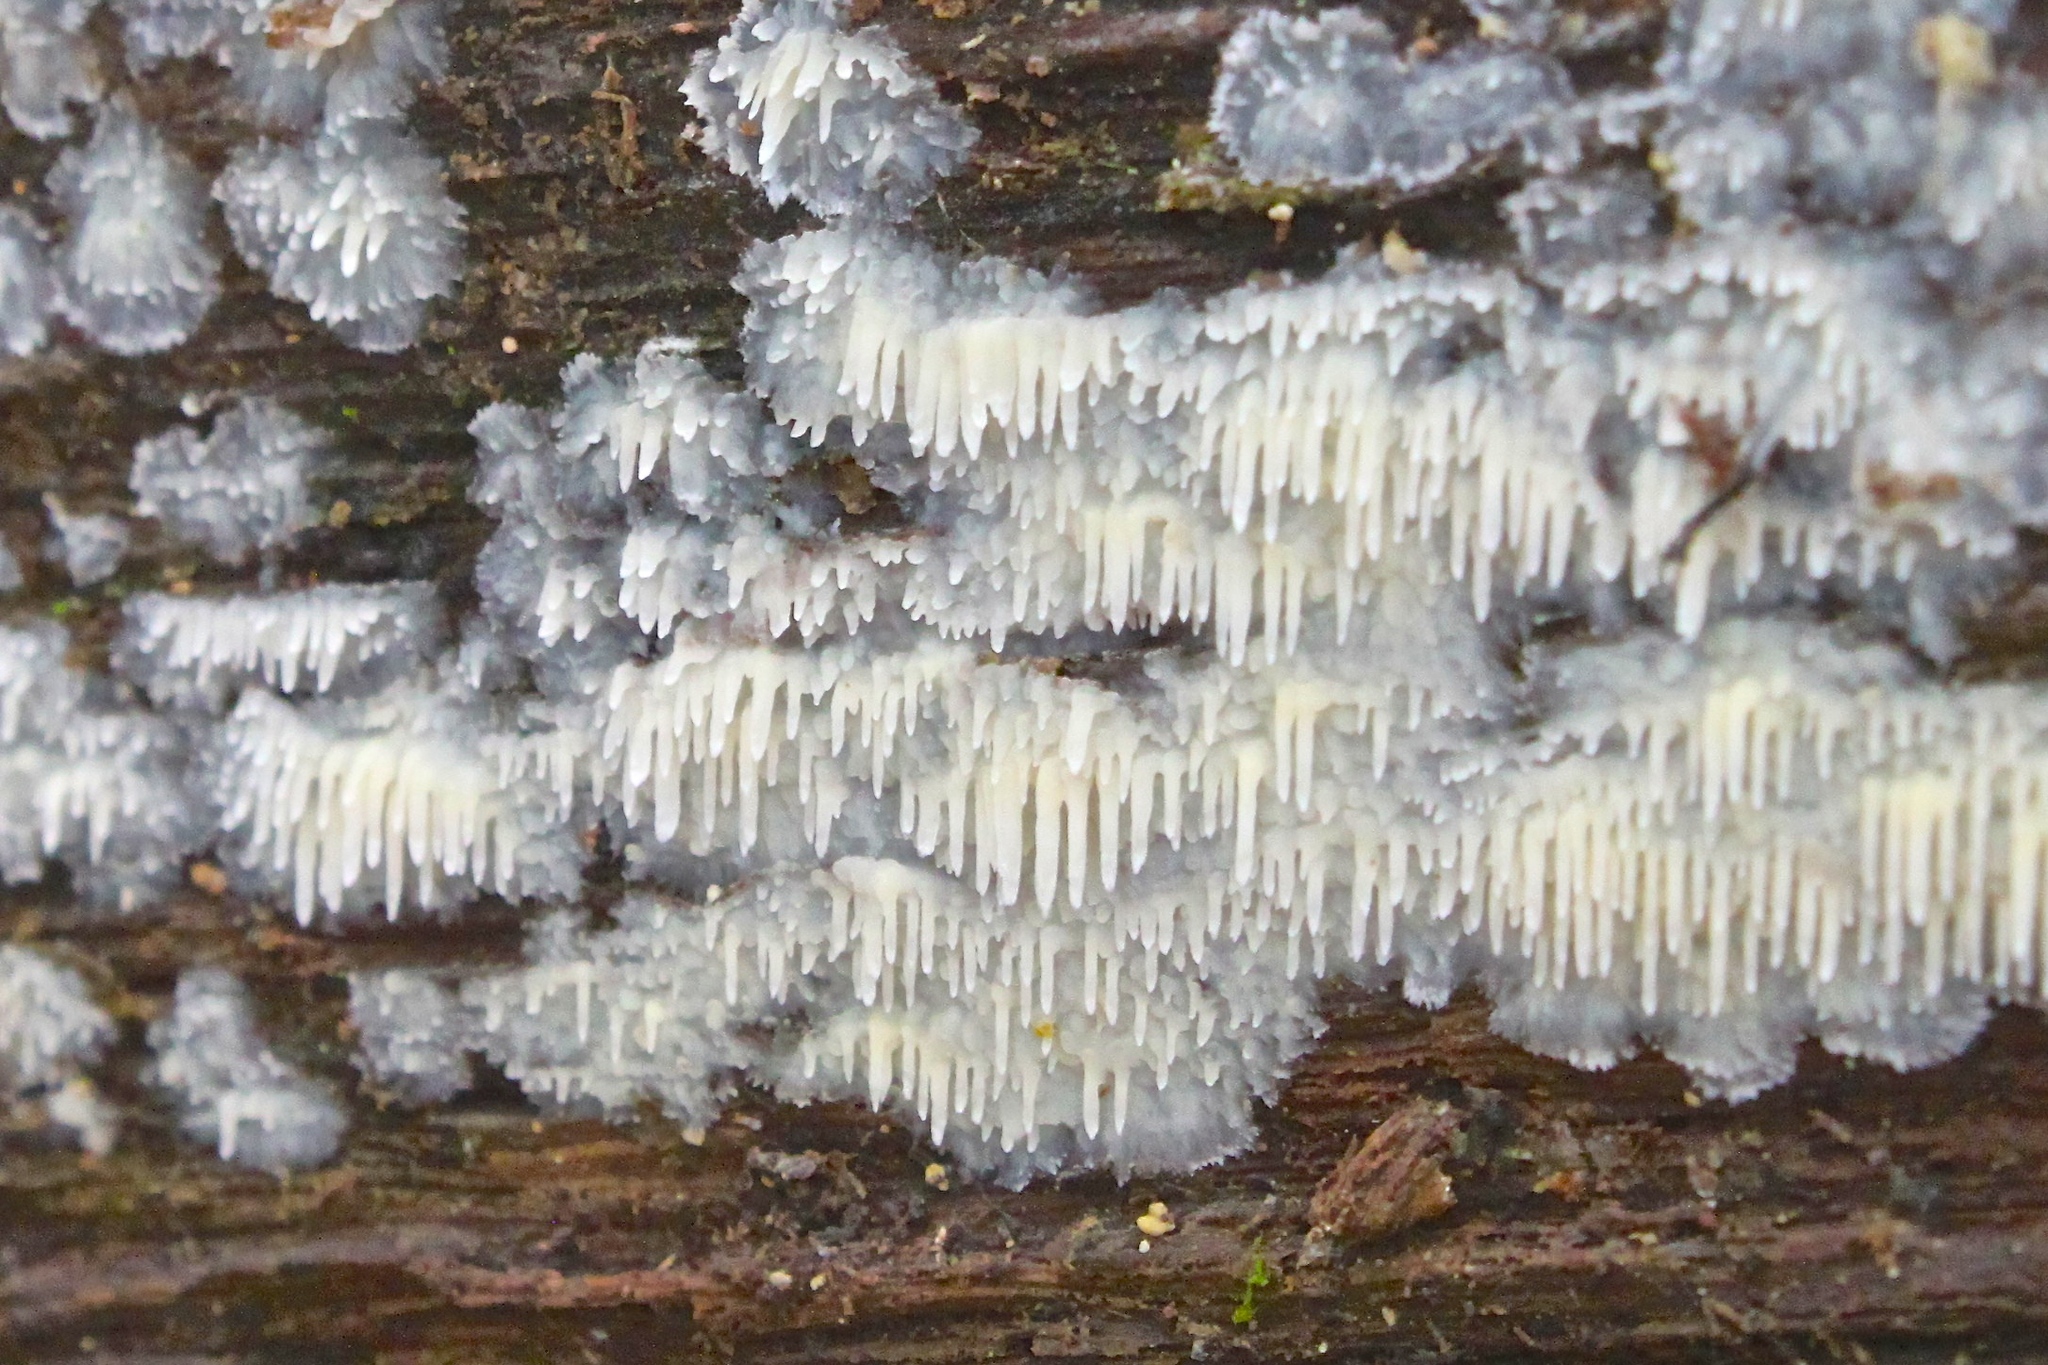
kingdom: Fungi
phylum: Basidiomycota
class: Agaricomycetes
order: Agaricales
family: Radulomycetaceae
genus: Radulomyces
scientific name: Radulomyces copelandii
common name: Asian beauty
